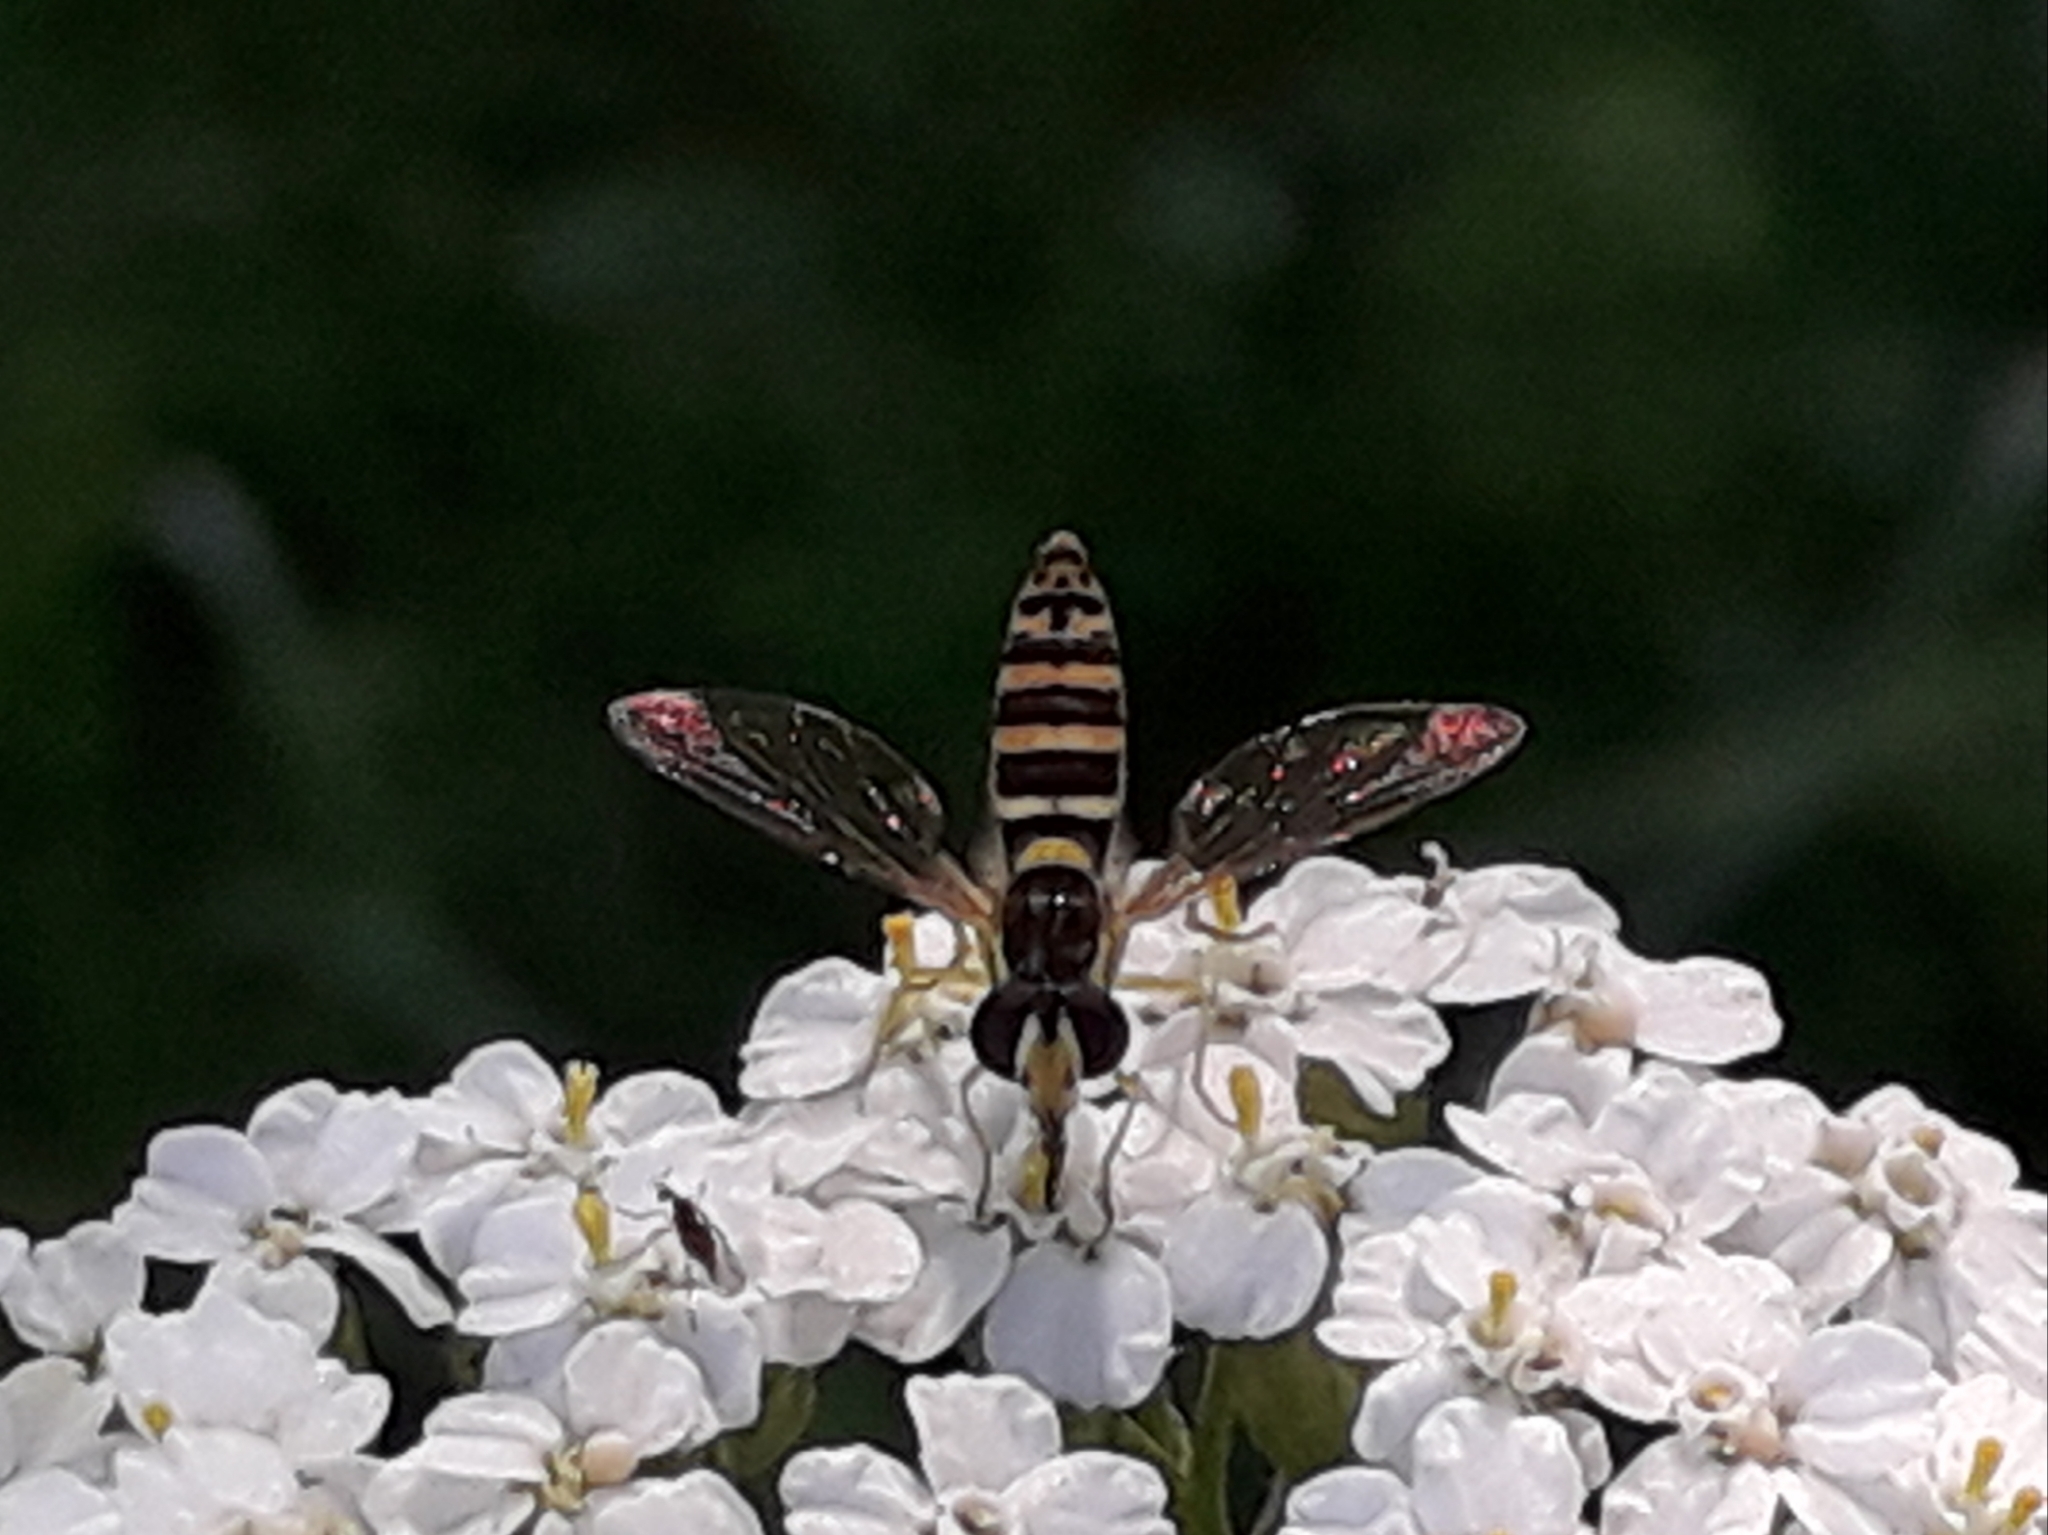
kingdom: Animalia
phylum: Arthropoda
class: Insecta
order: Diptera
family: Syrphidae
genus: Sphaerophoria
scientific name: Sphaerophoria
